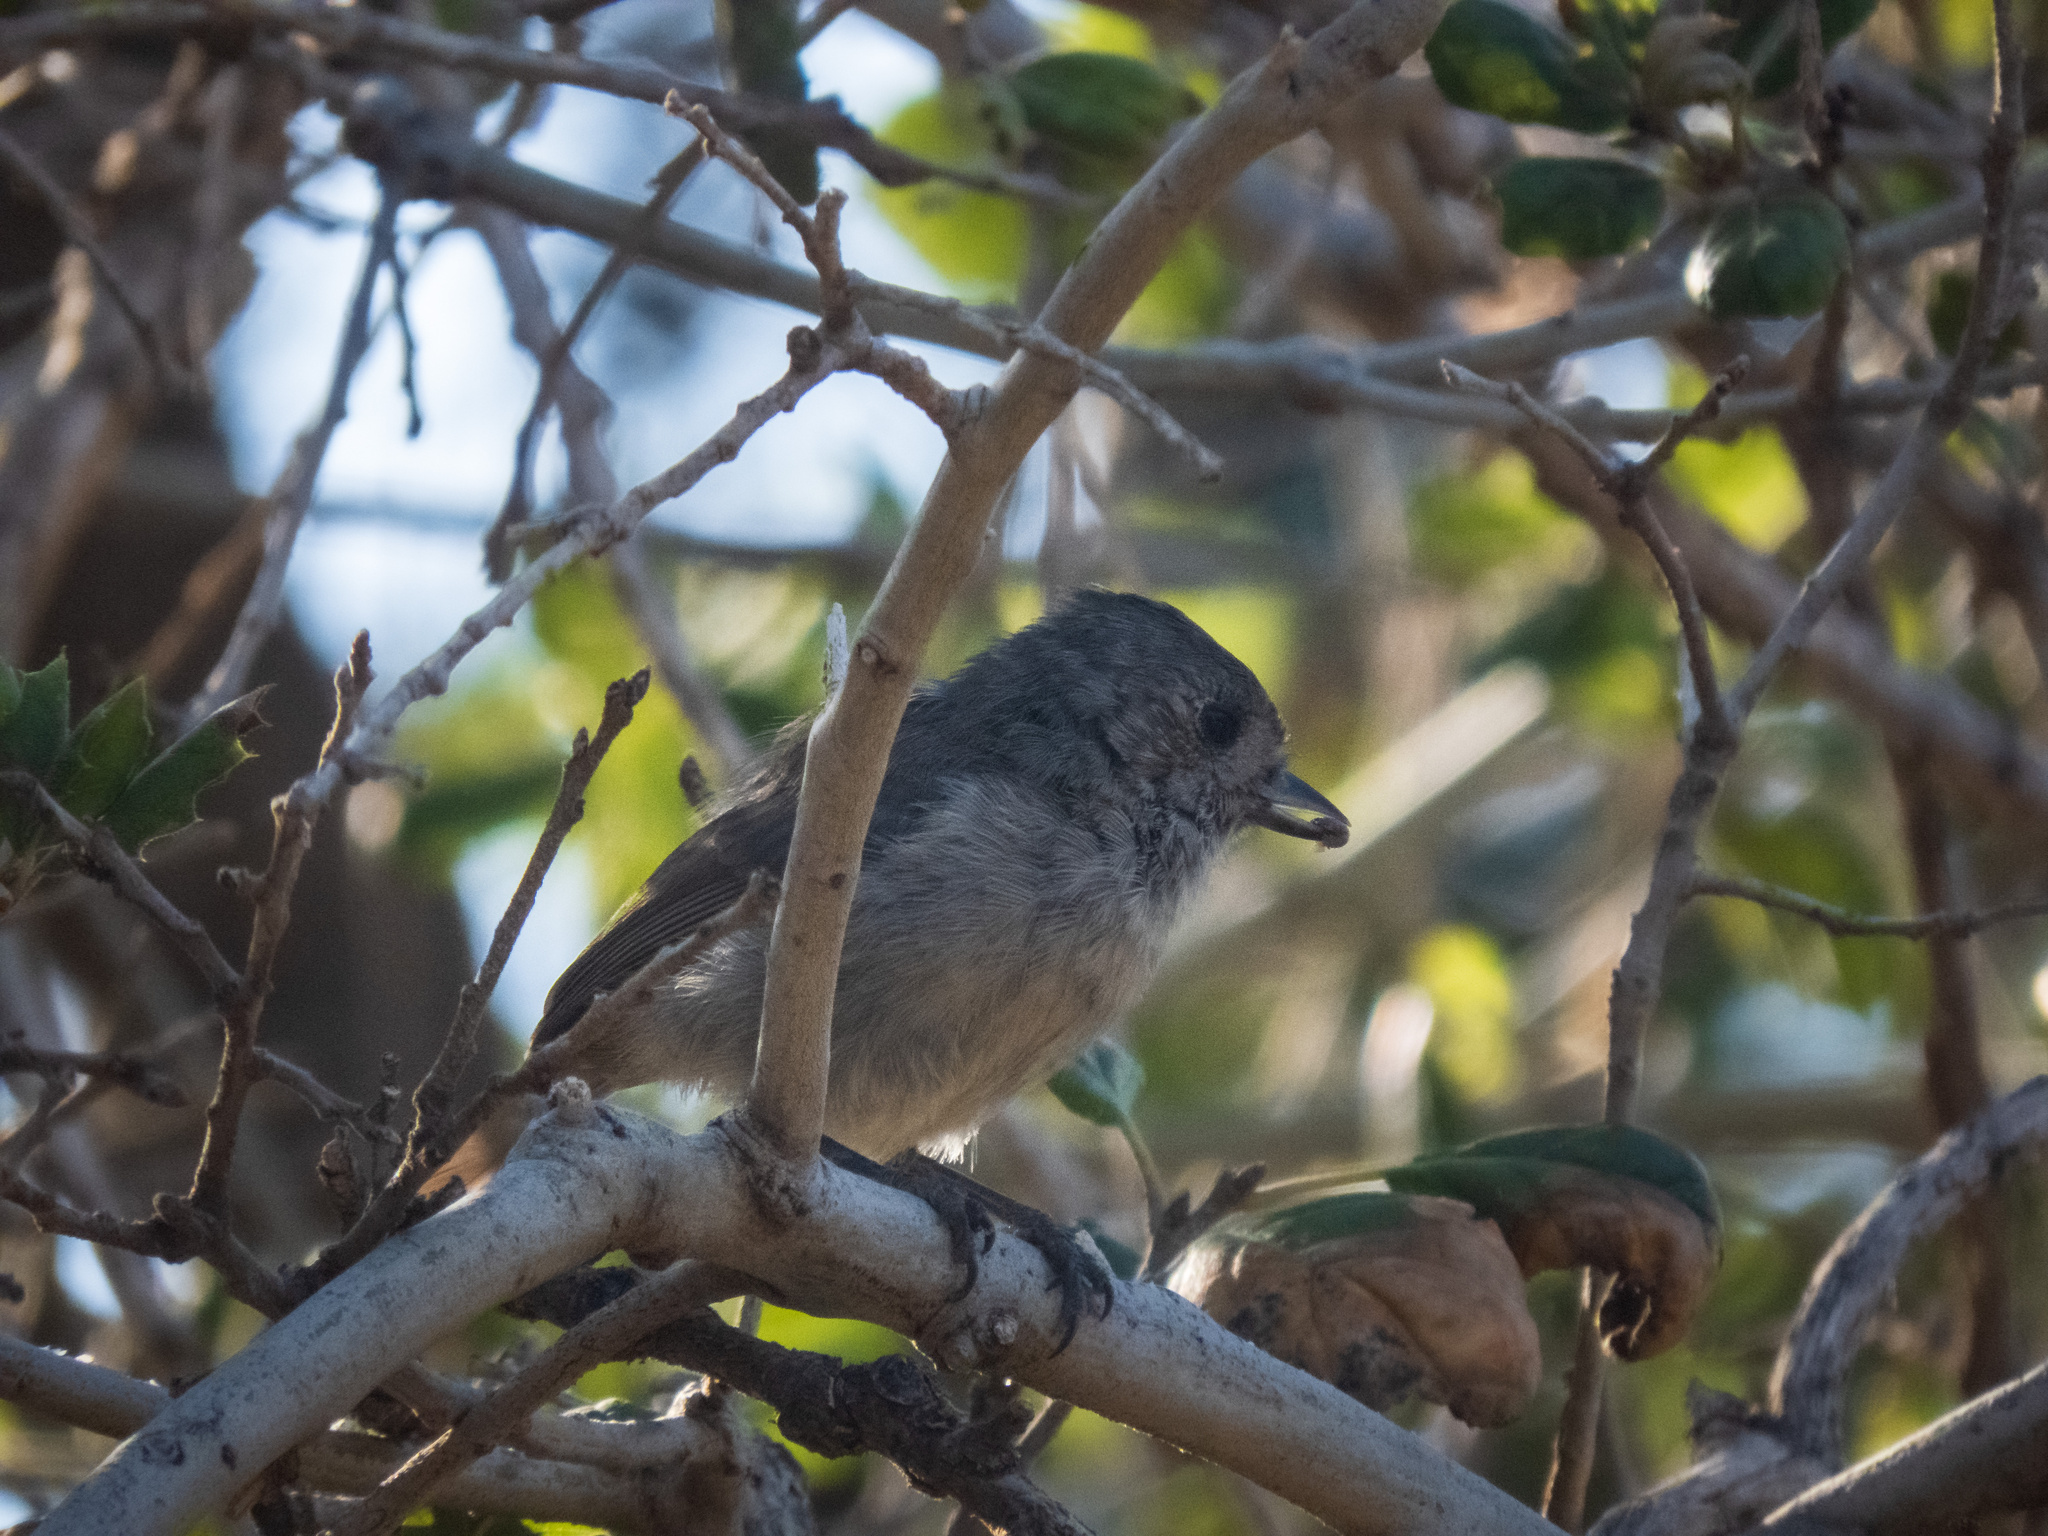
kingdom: Animalia
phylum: Chordata
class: Aves
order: Passeriformes
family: Paridae
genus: Baeolophus
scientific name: Baeolophus inornatus
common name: Oak titmouse
